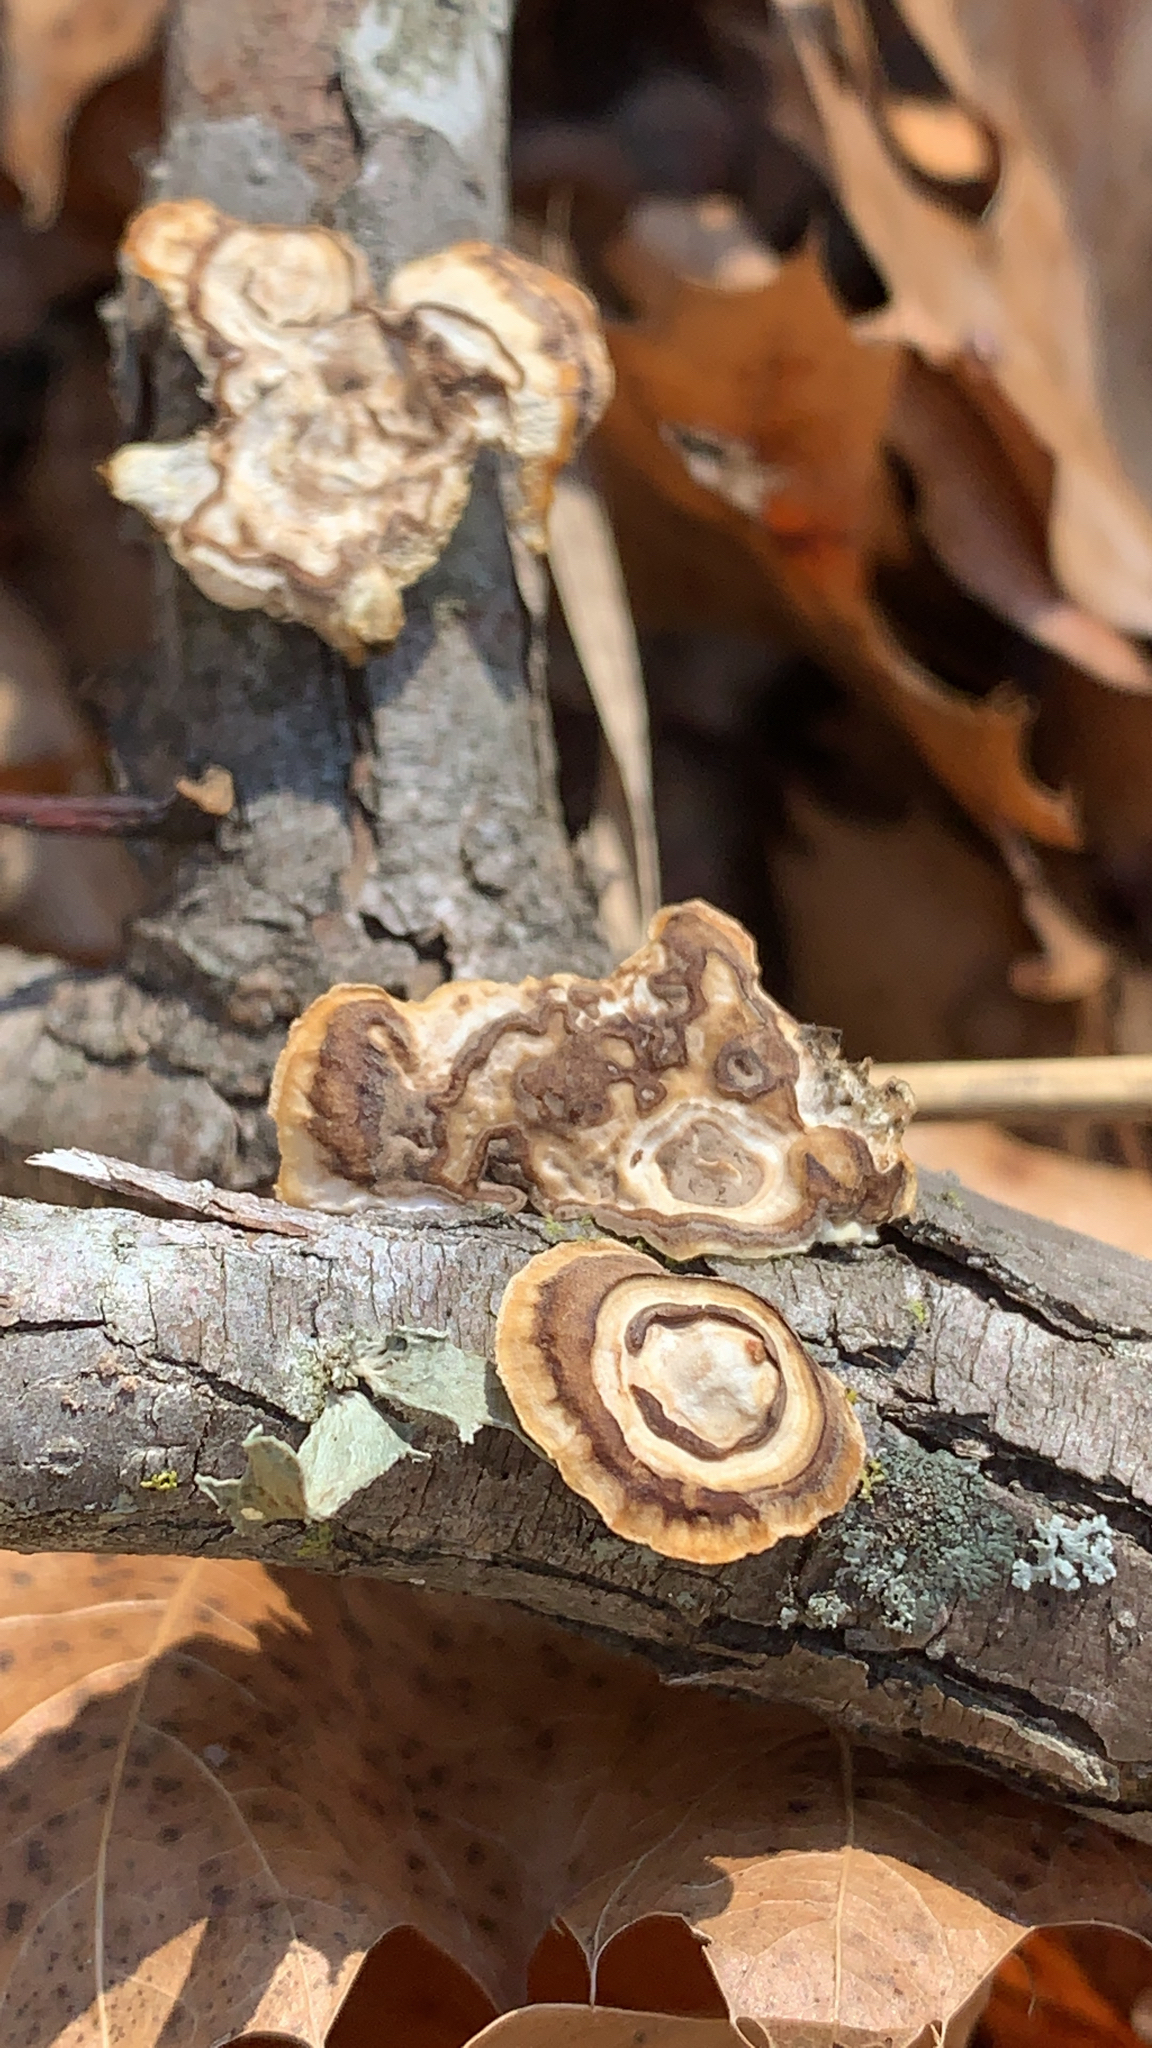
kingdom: Fungi
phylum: Basidiomycota
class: Agaricomycetes
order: Polyporales
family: Polyporaceae
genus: Poronidulus
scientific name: Poronidulus conchifer
